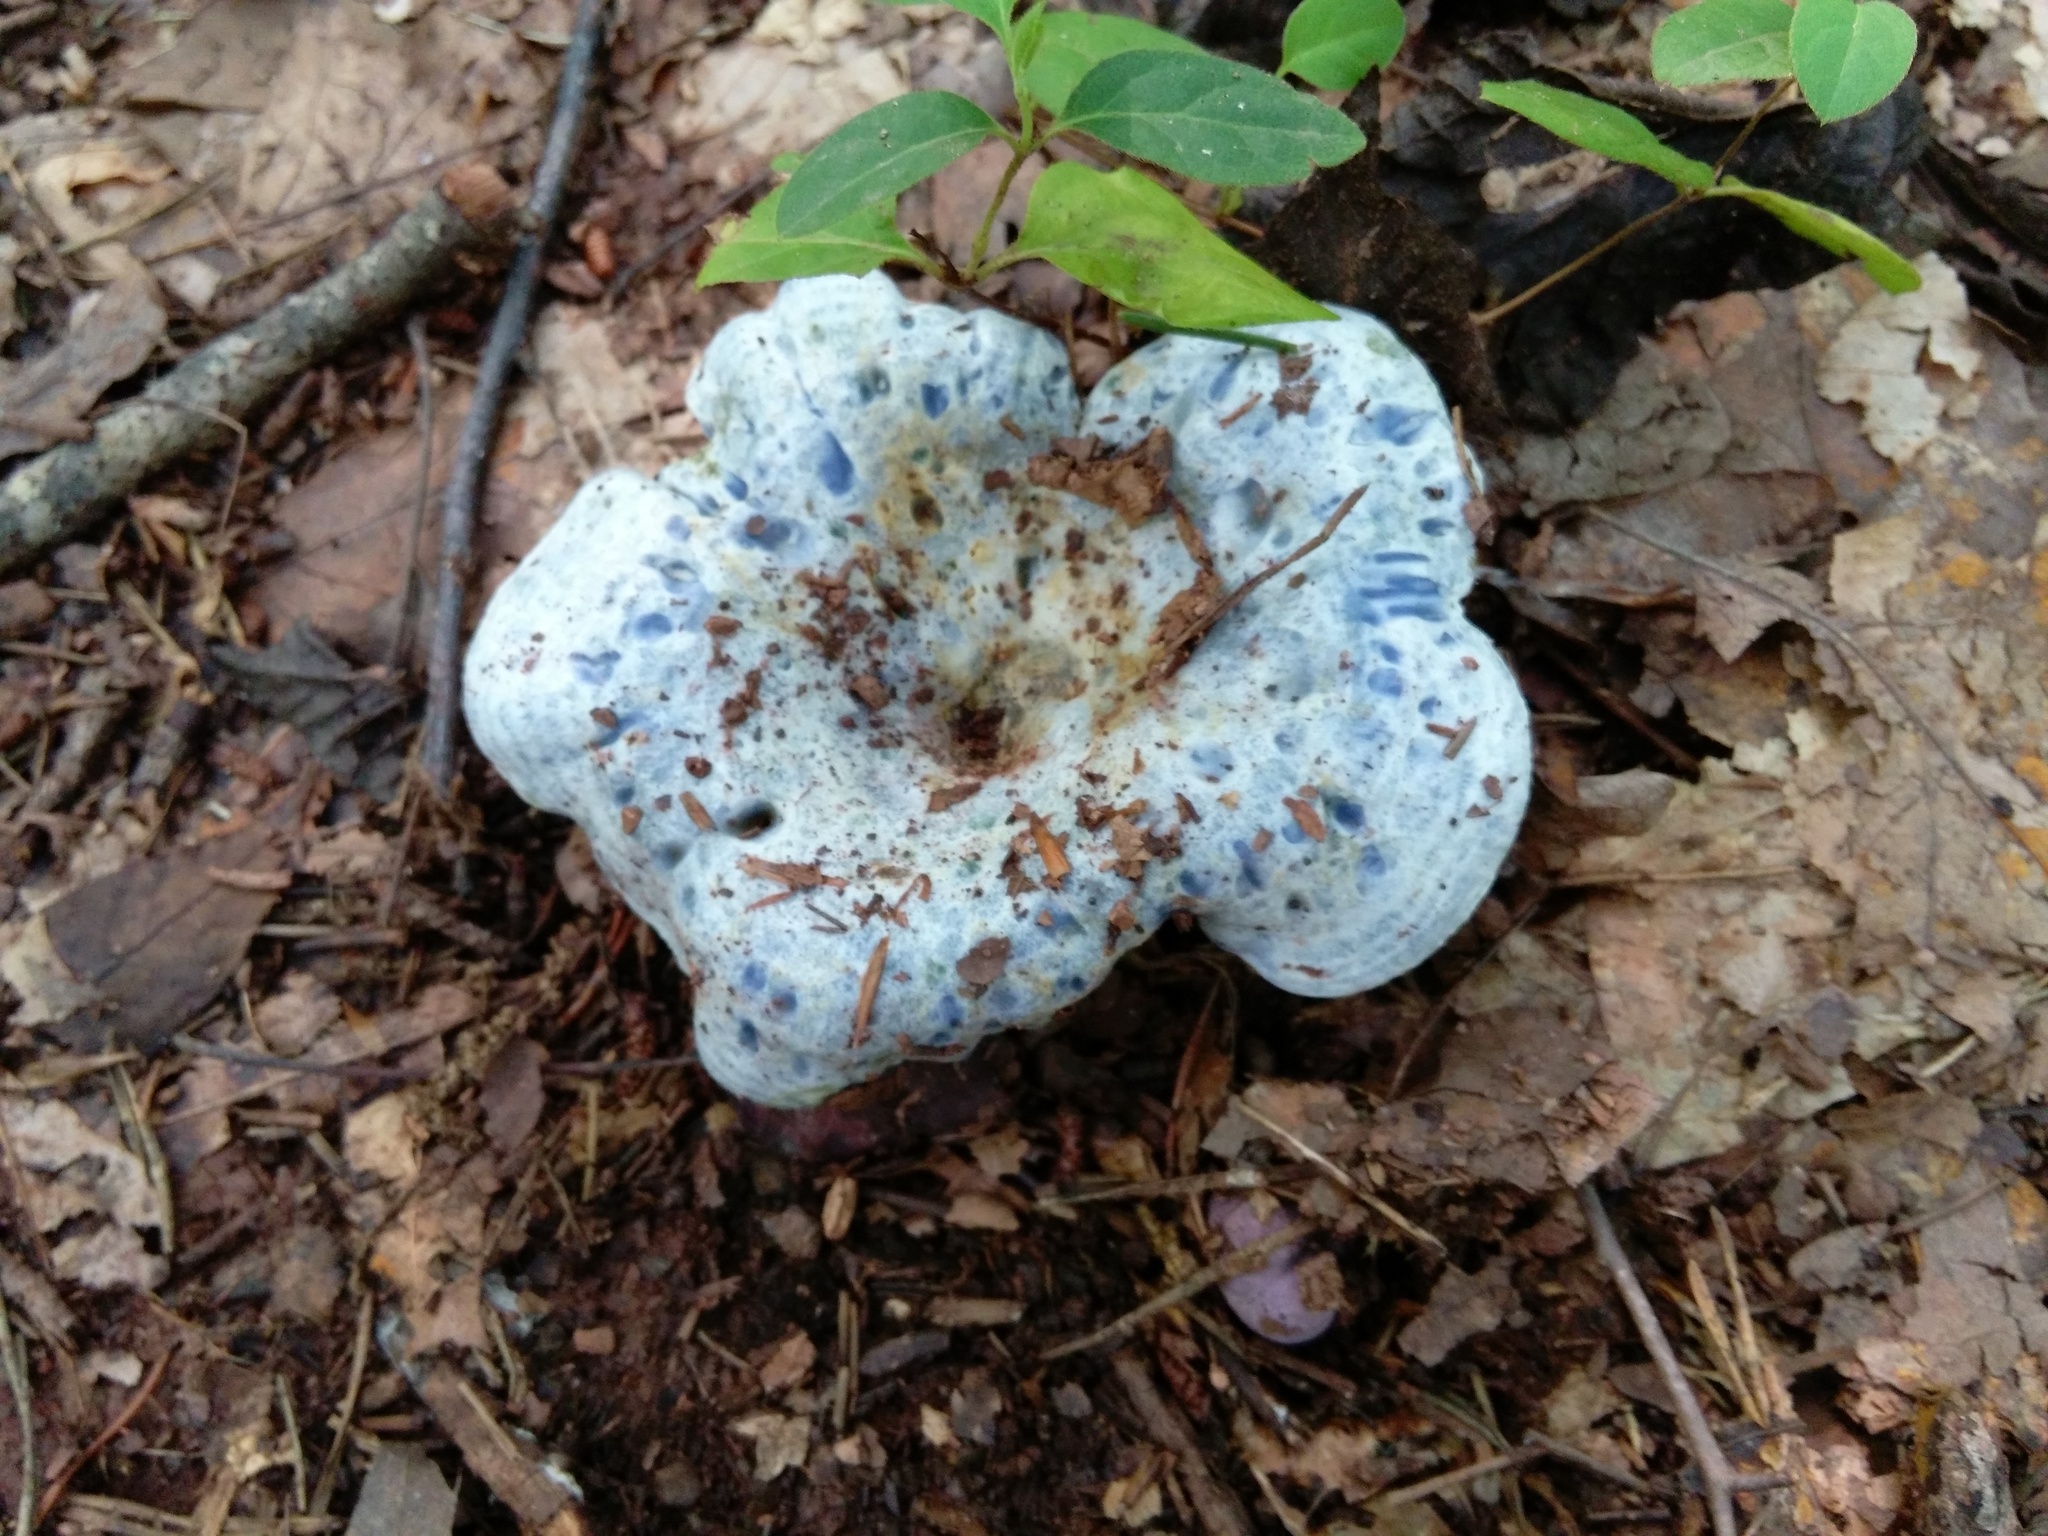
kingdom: Fungi
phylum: Basidiomycota
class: Agaricomycetes
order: Russulales
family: Russulaceae
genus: Lactarius
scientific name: Lactarius indigo
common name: Indigo milk cap
